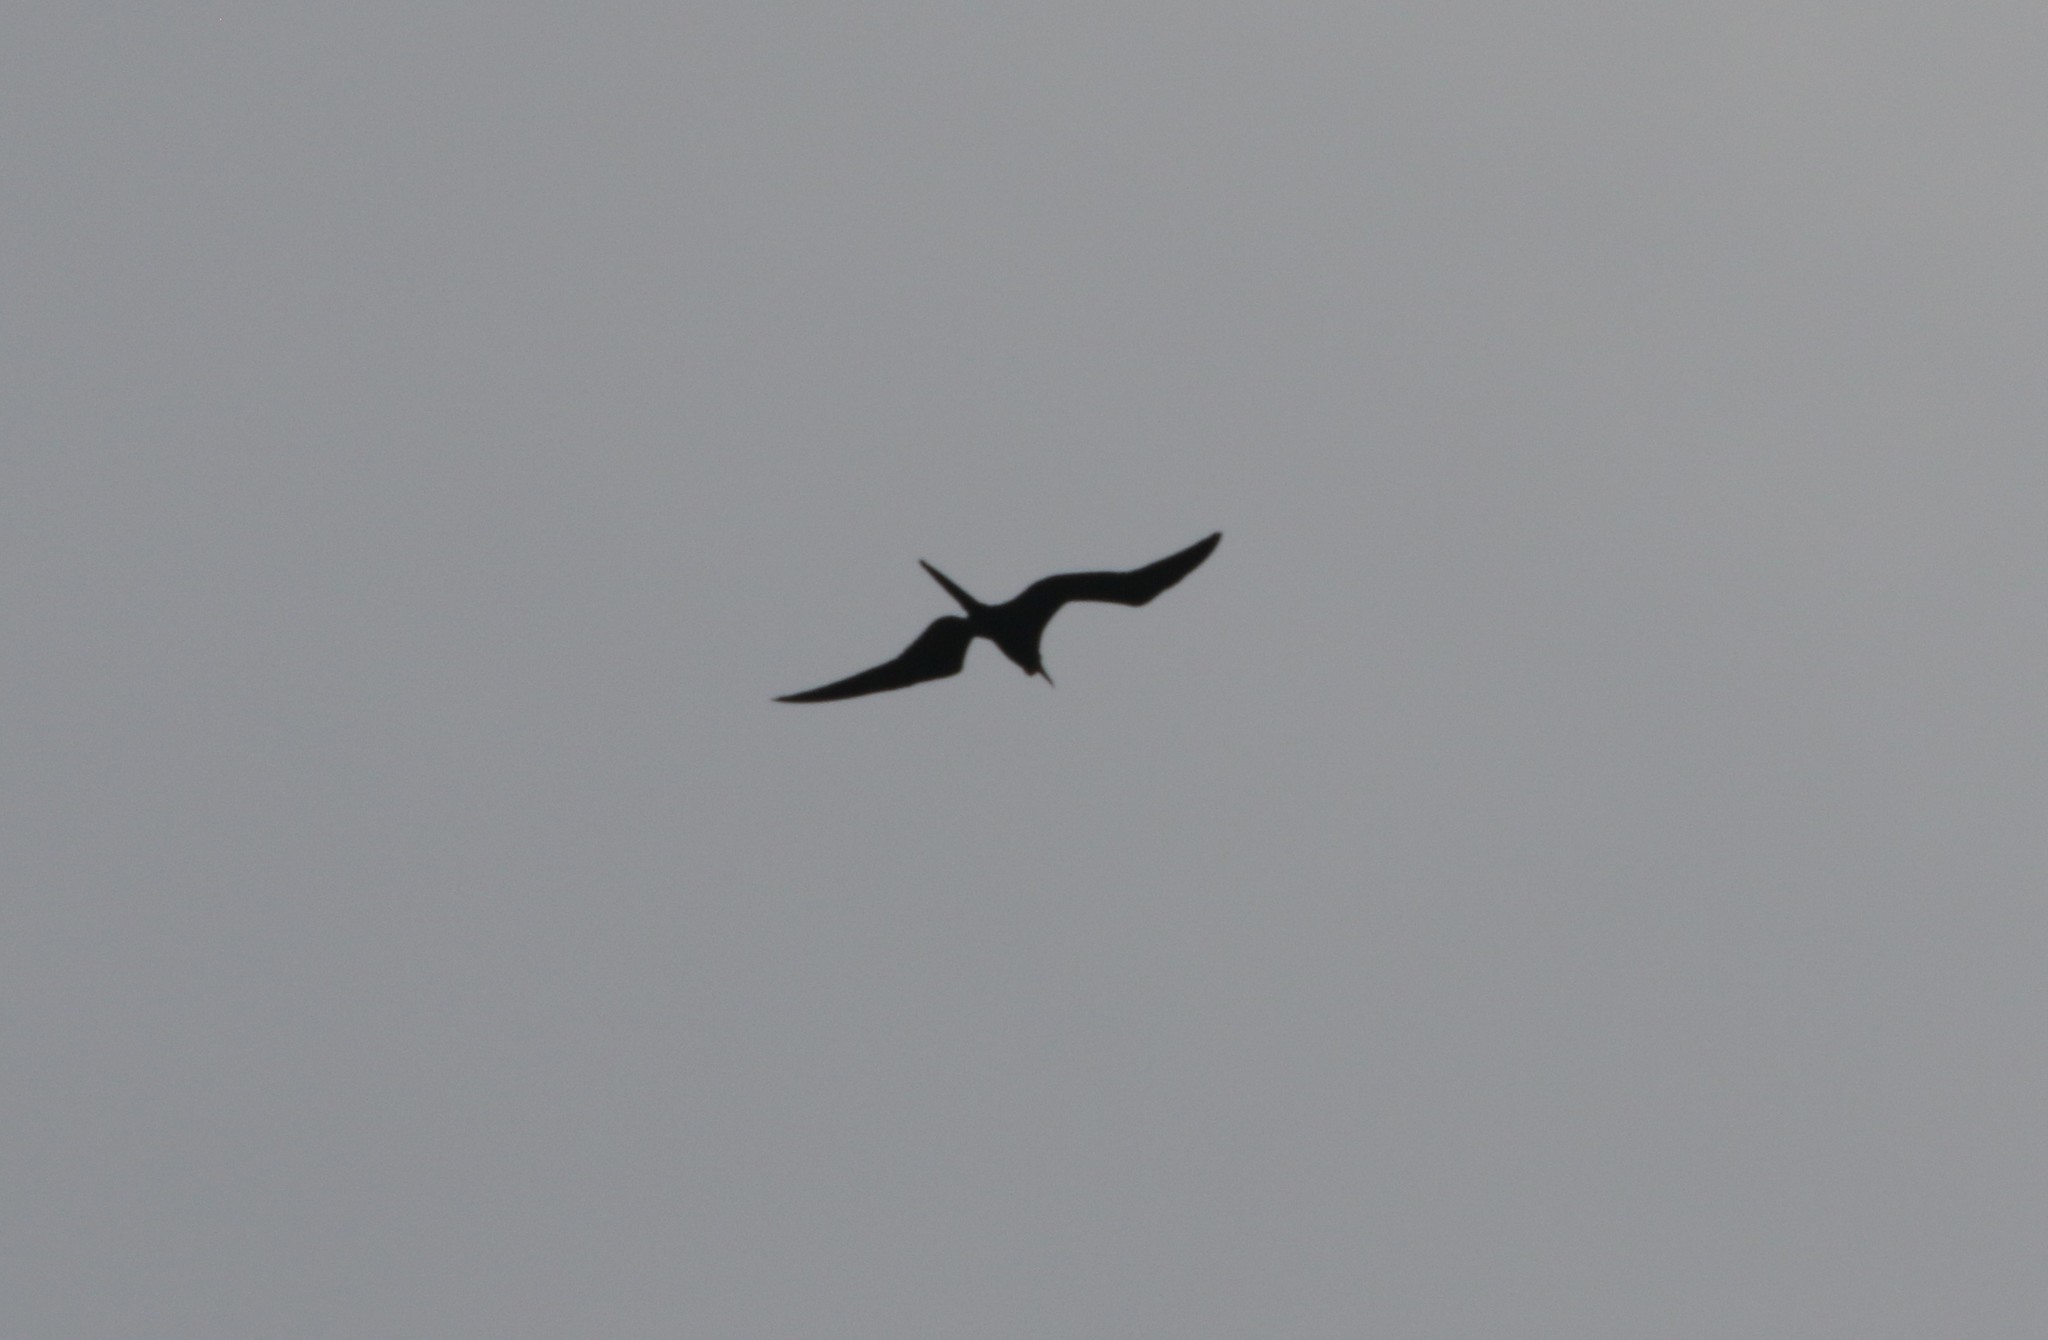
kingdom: Animalia
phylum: Chordata
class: Aves
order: Suliformes
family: Fregatidae
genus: Fregata
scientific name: Fregata magnificens
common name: Magnificent frigatebird
